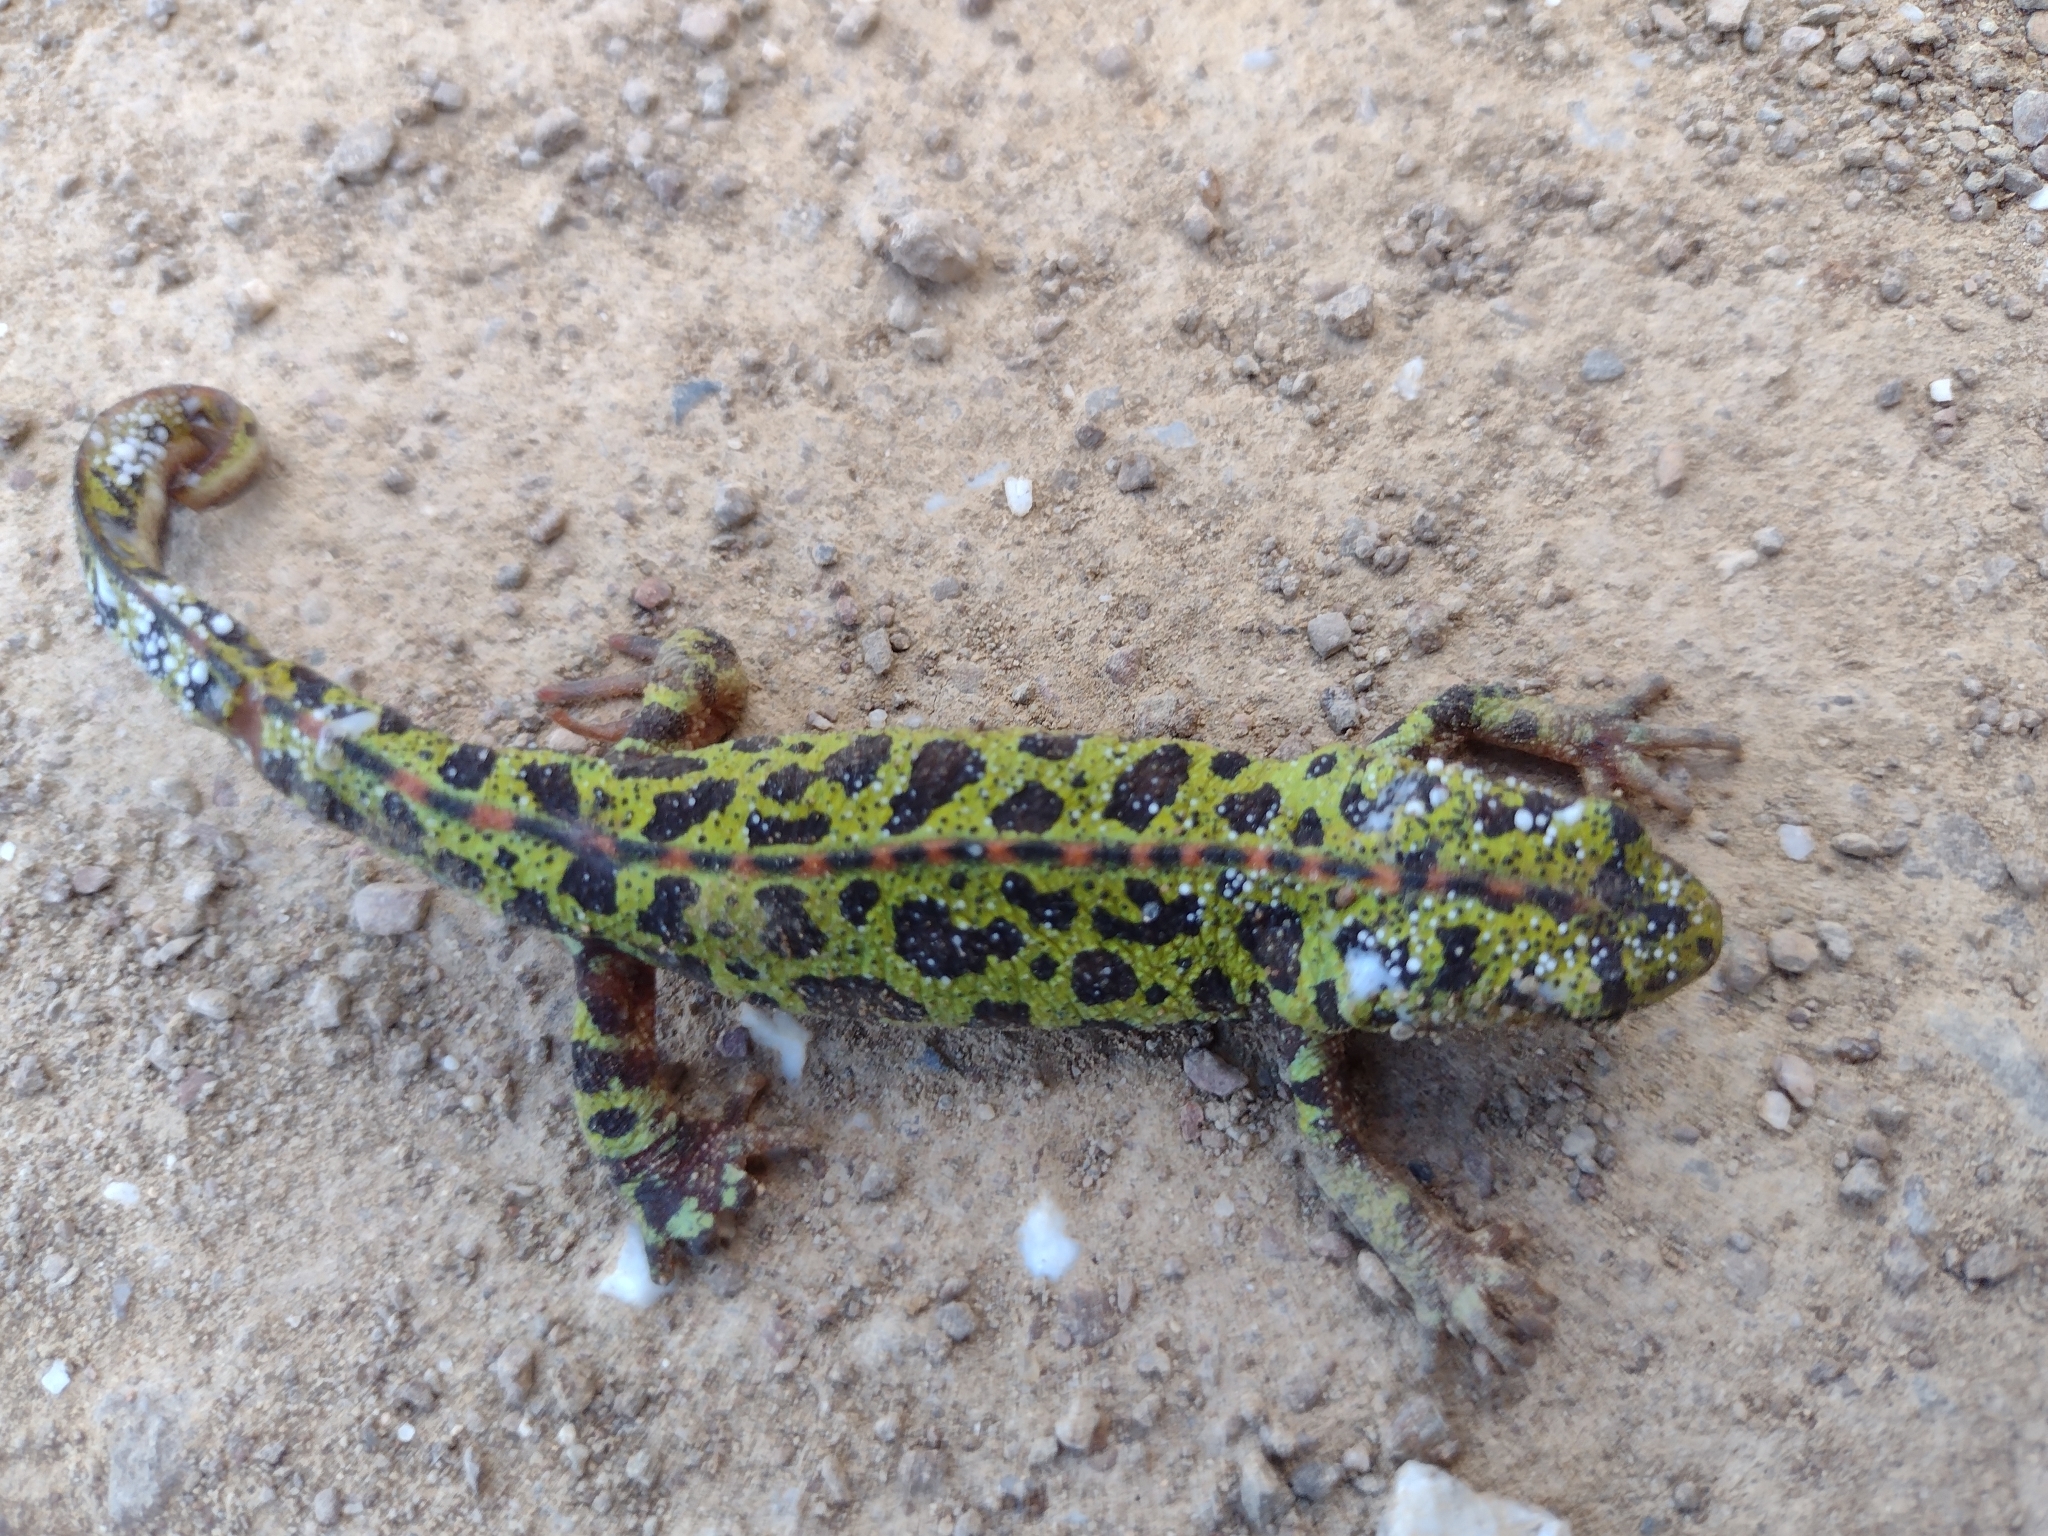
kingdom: Animalia
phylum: Chordata
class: Amphibia
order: Caudata
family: Salamandridae
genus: Triturus
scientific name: Triturus pygmaeus
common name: Southern marbled newt
